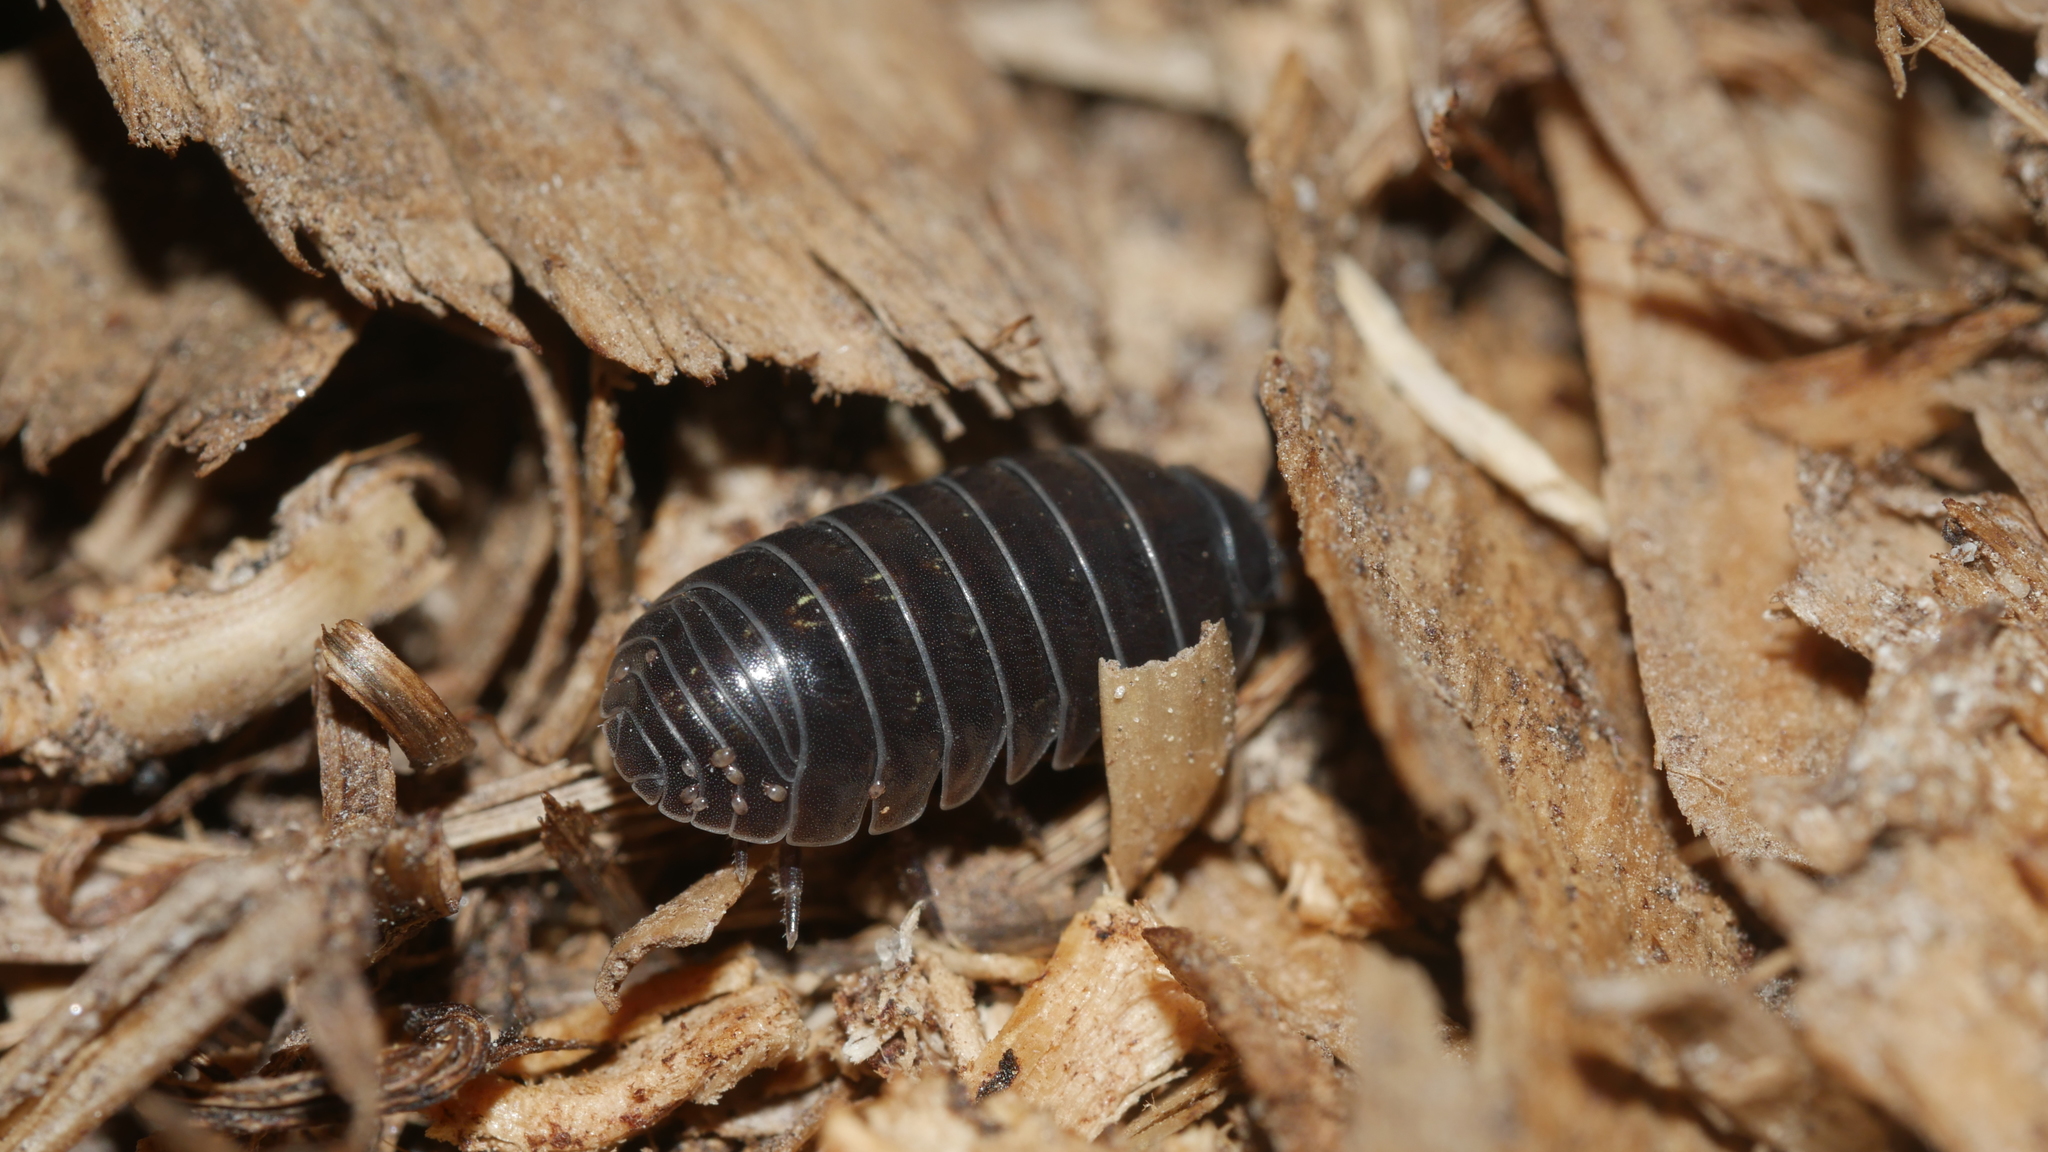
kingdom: Animalia
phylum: Arthropoda
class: Malacostraca
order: Isopoda
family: Armadillidiidae
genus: Armadillidium
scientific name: Armadillidium vulgare
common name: Common pill woodlouse
